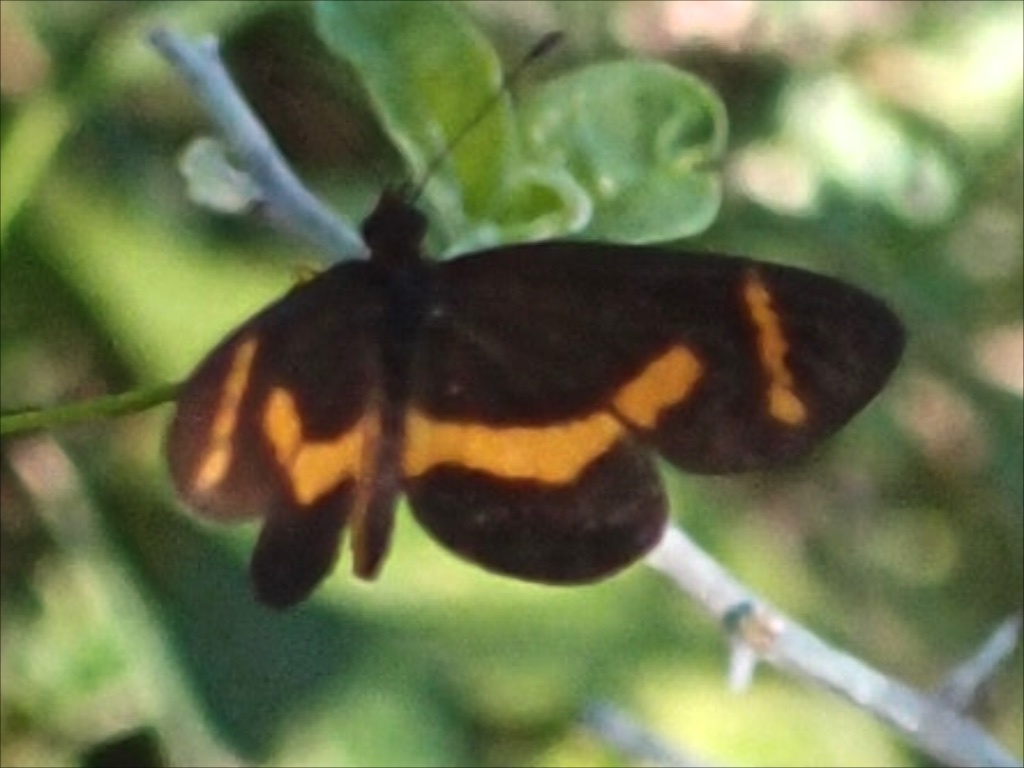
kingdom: Animalia
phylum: Arthropoda
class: Insecta
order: Lepidoptera
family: Nymphalidae
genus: Microtia
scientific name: Microtia elva
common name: Elf
